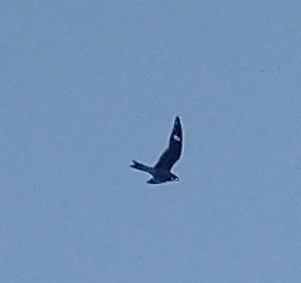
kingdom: Animalia
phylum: Chordata
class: Aves
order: Caprimulgiformes
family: Caprimulgidae
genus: Chordeiles
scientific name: Chordeiles minor
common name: Common nighthawk
